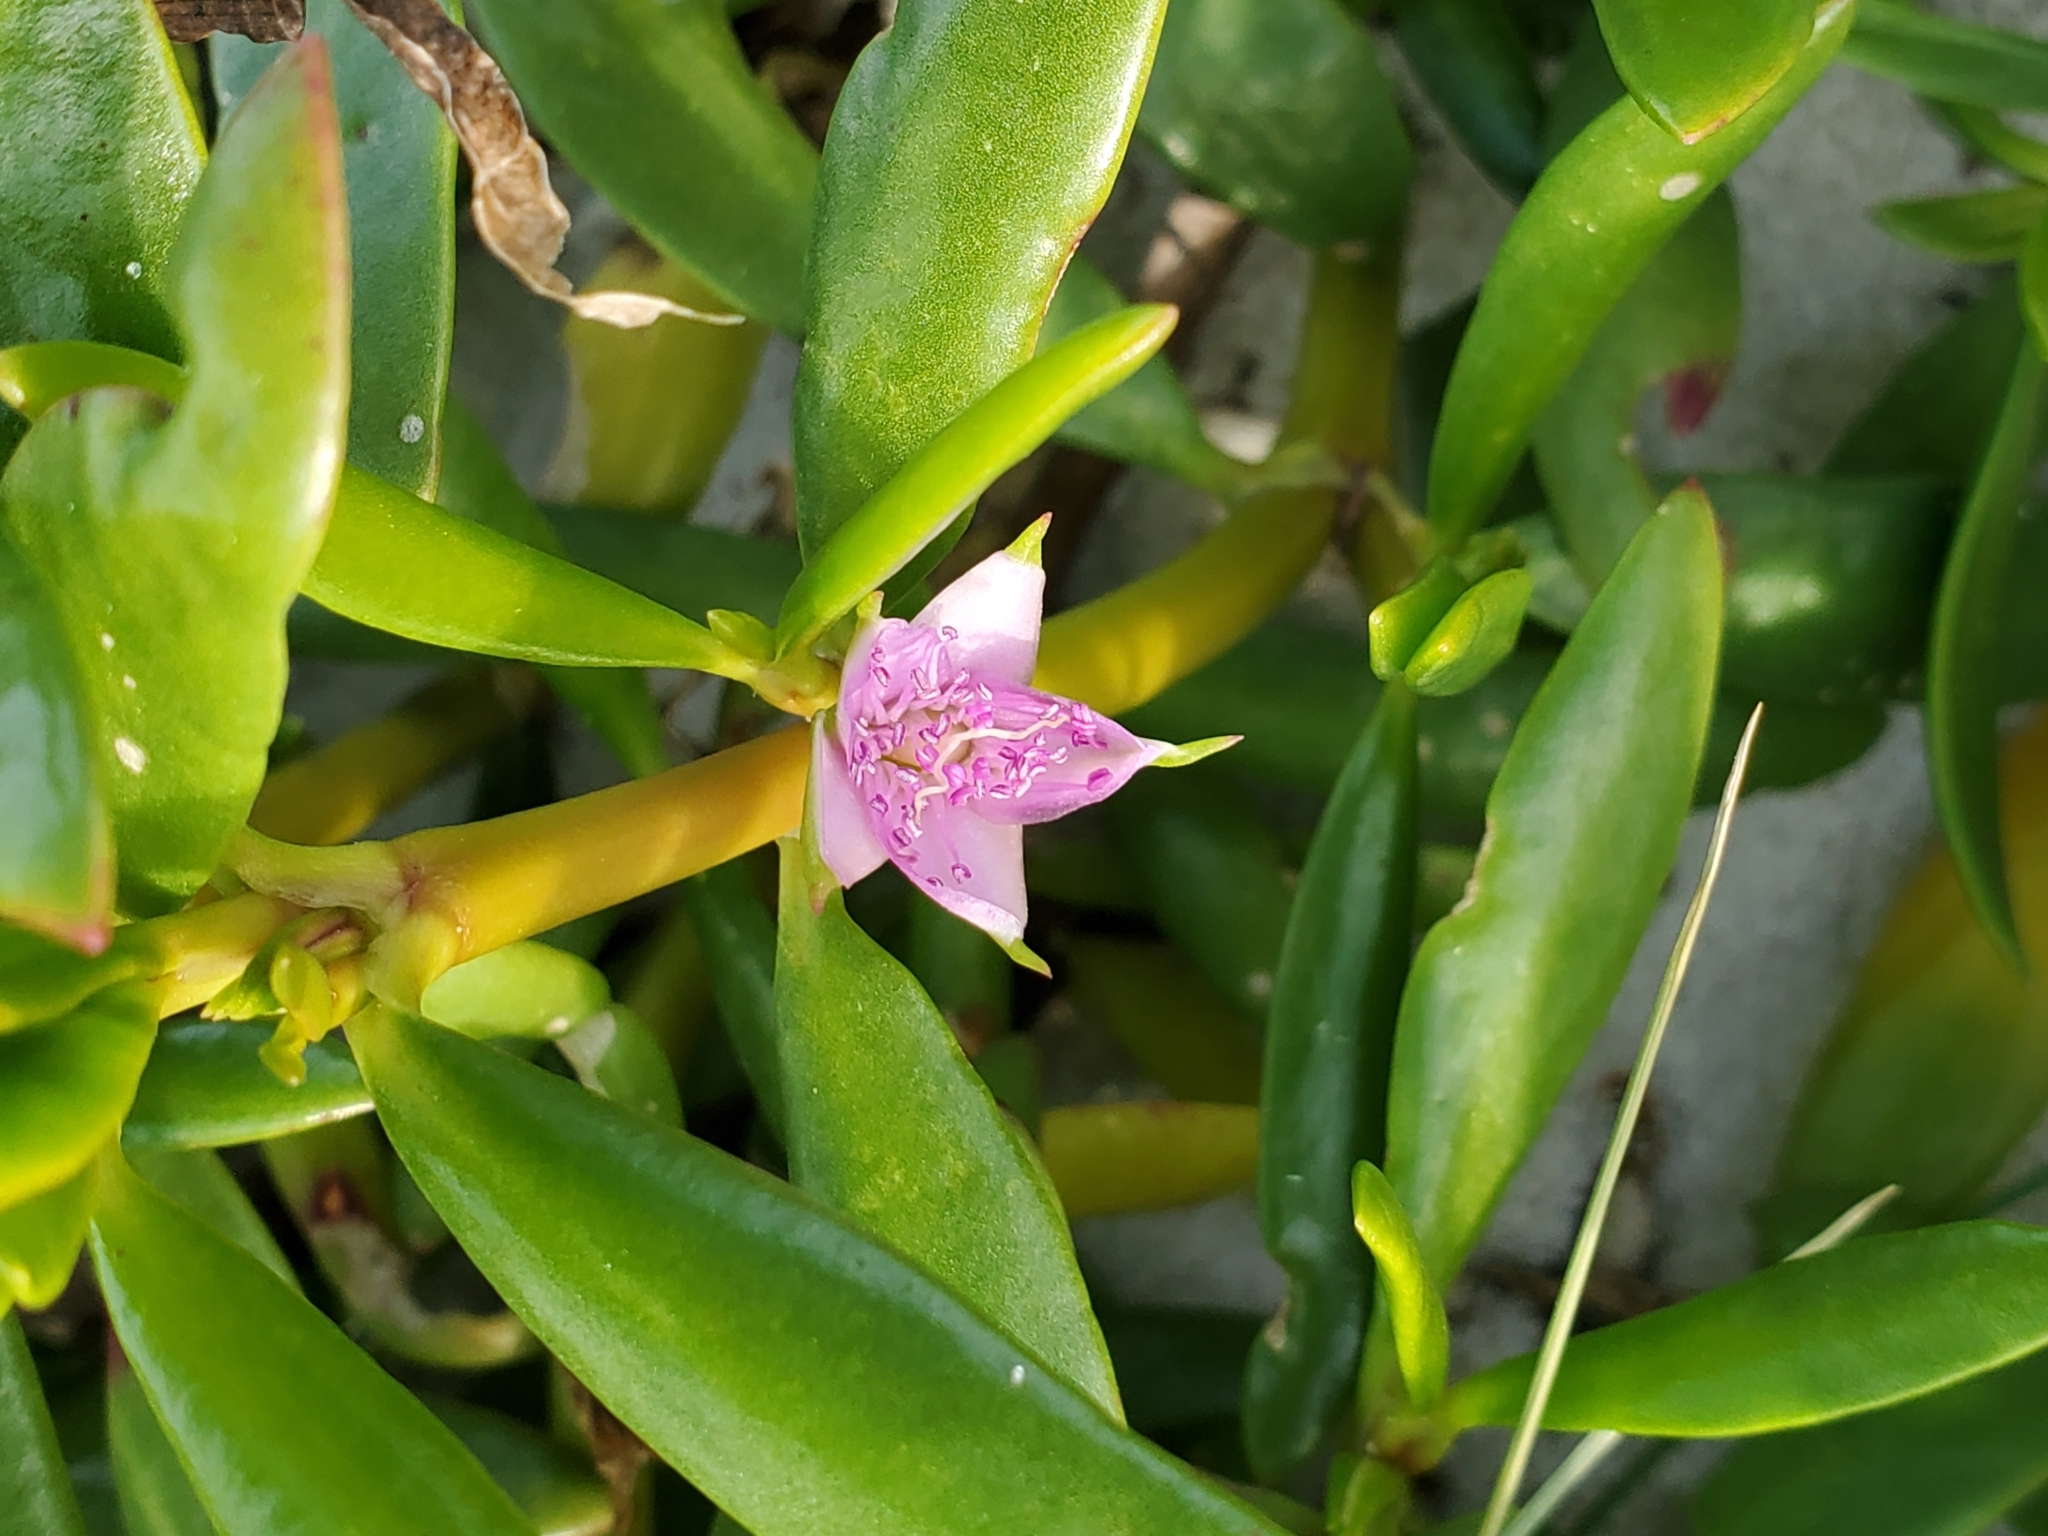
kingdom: Plantae
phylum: Tracheophyta
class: Magnoliopsida
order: Caryophyllales
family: Aizoaceae
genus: Sesuvium
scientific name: Sesuvium portulacastrum
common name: Sea-purslane
